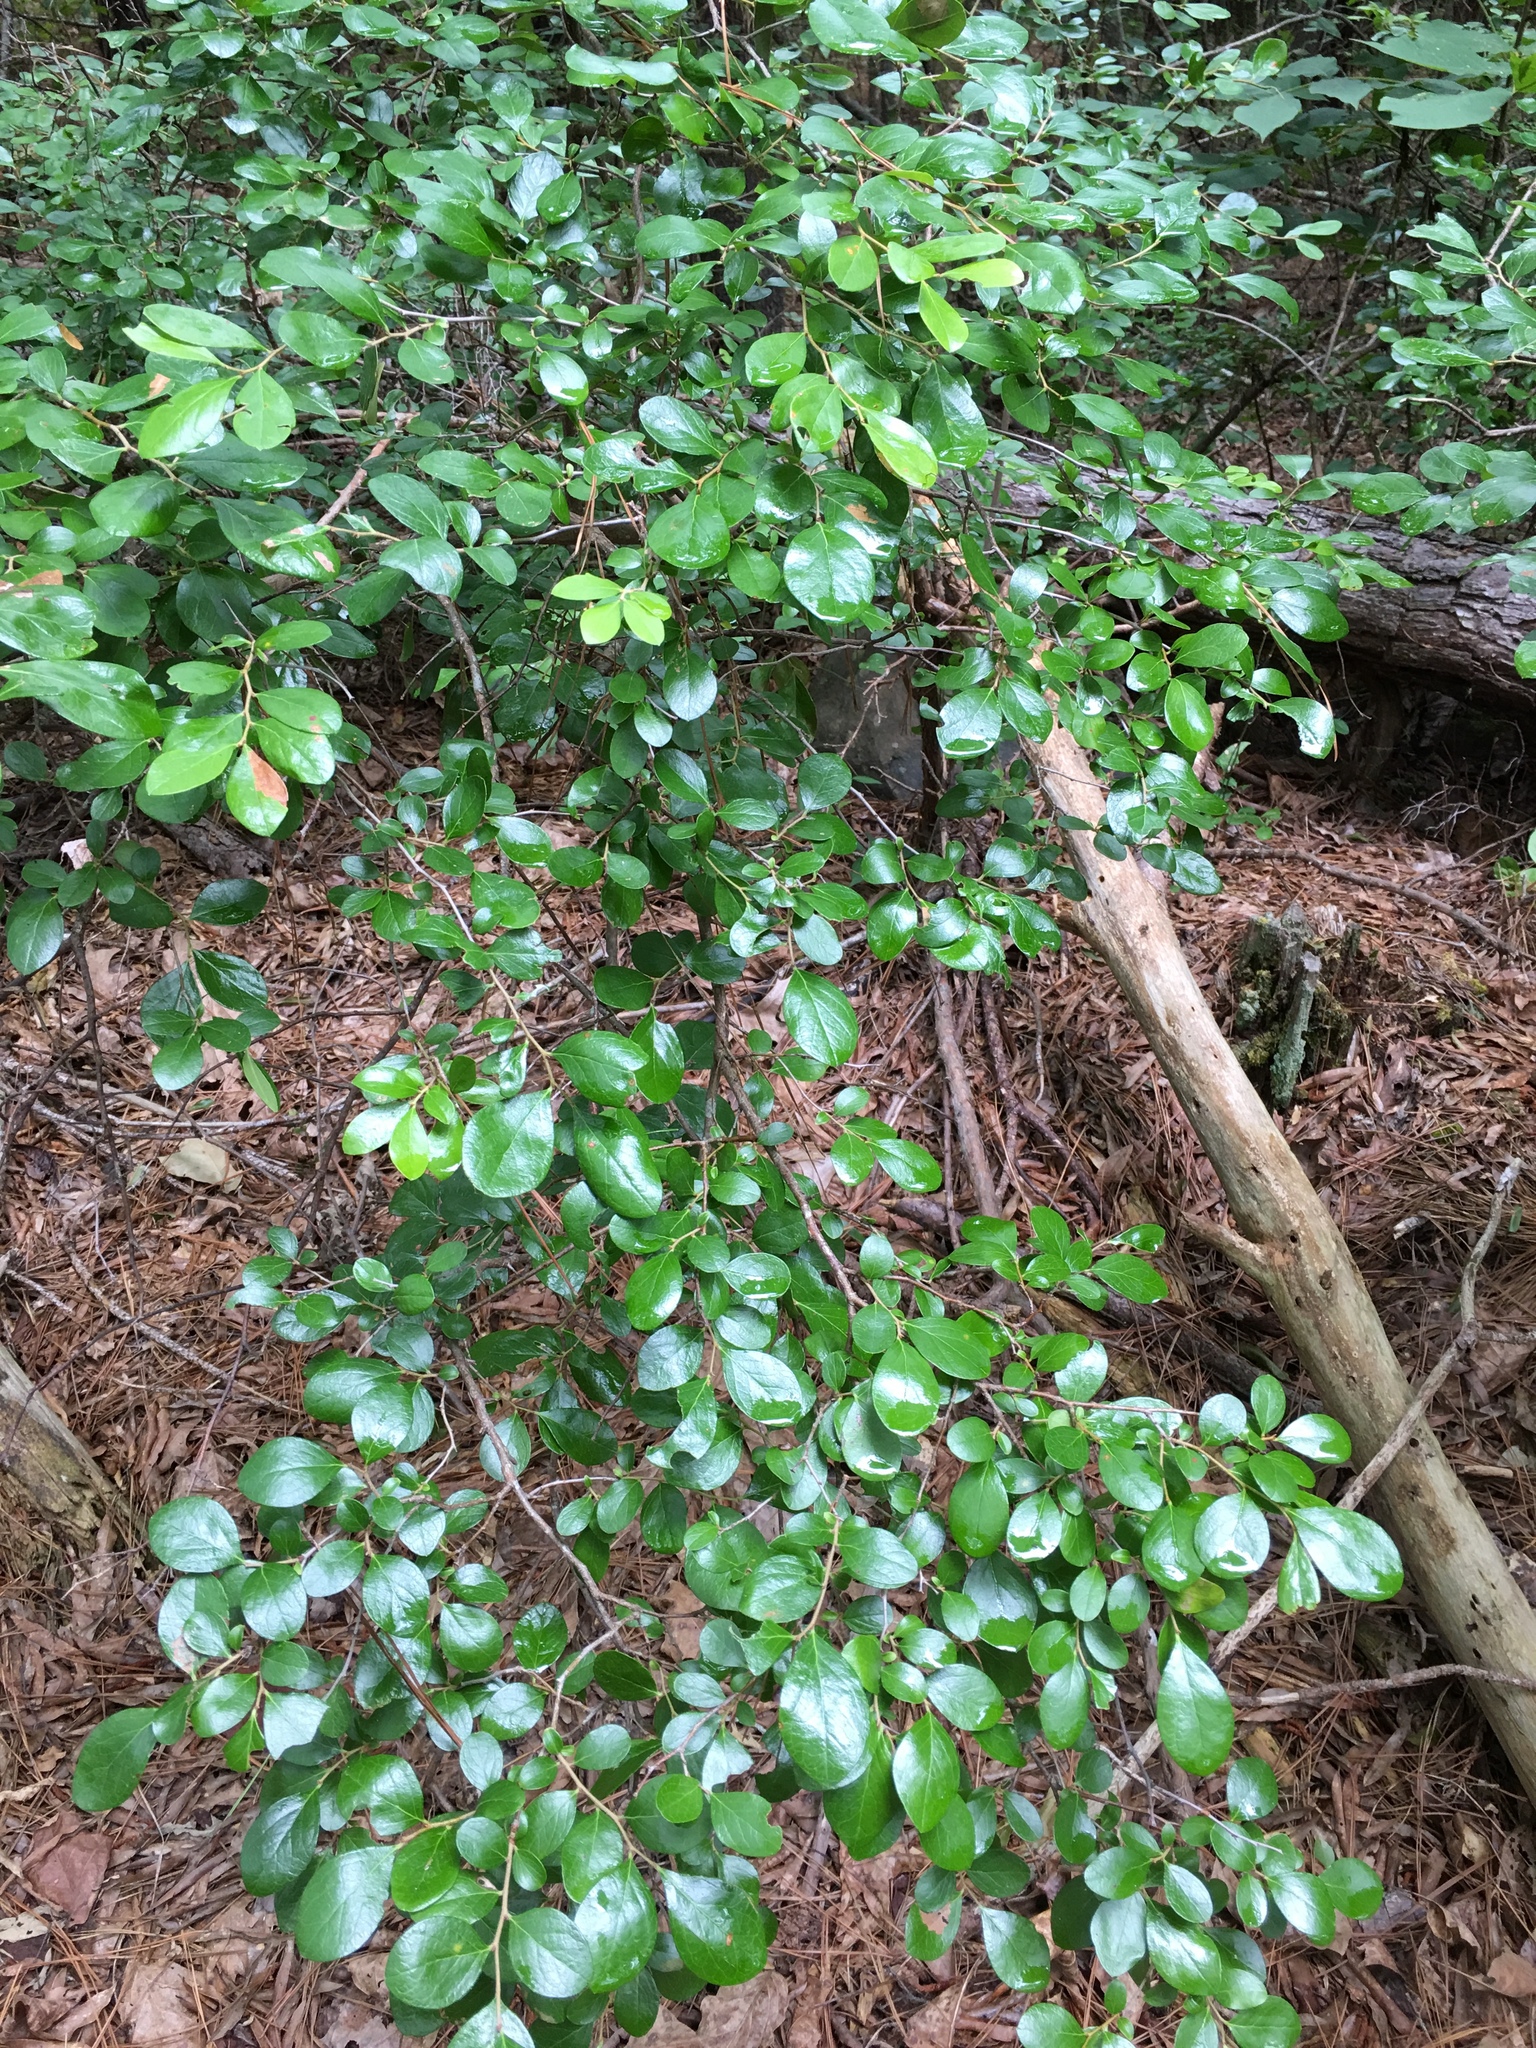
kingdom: Plantae
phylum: Tracheophyta
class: Magnoliopsida
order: Ericales
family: Ericaceae
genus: Vaccinium
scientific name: Vaccinium arboreum
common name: Farkleberry
